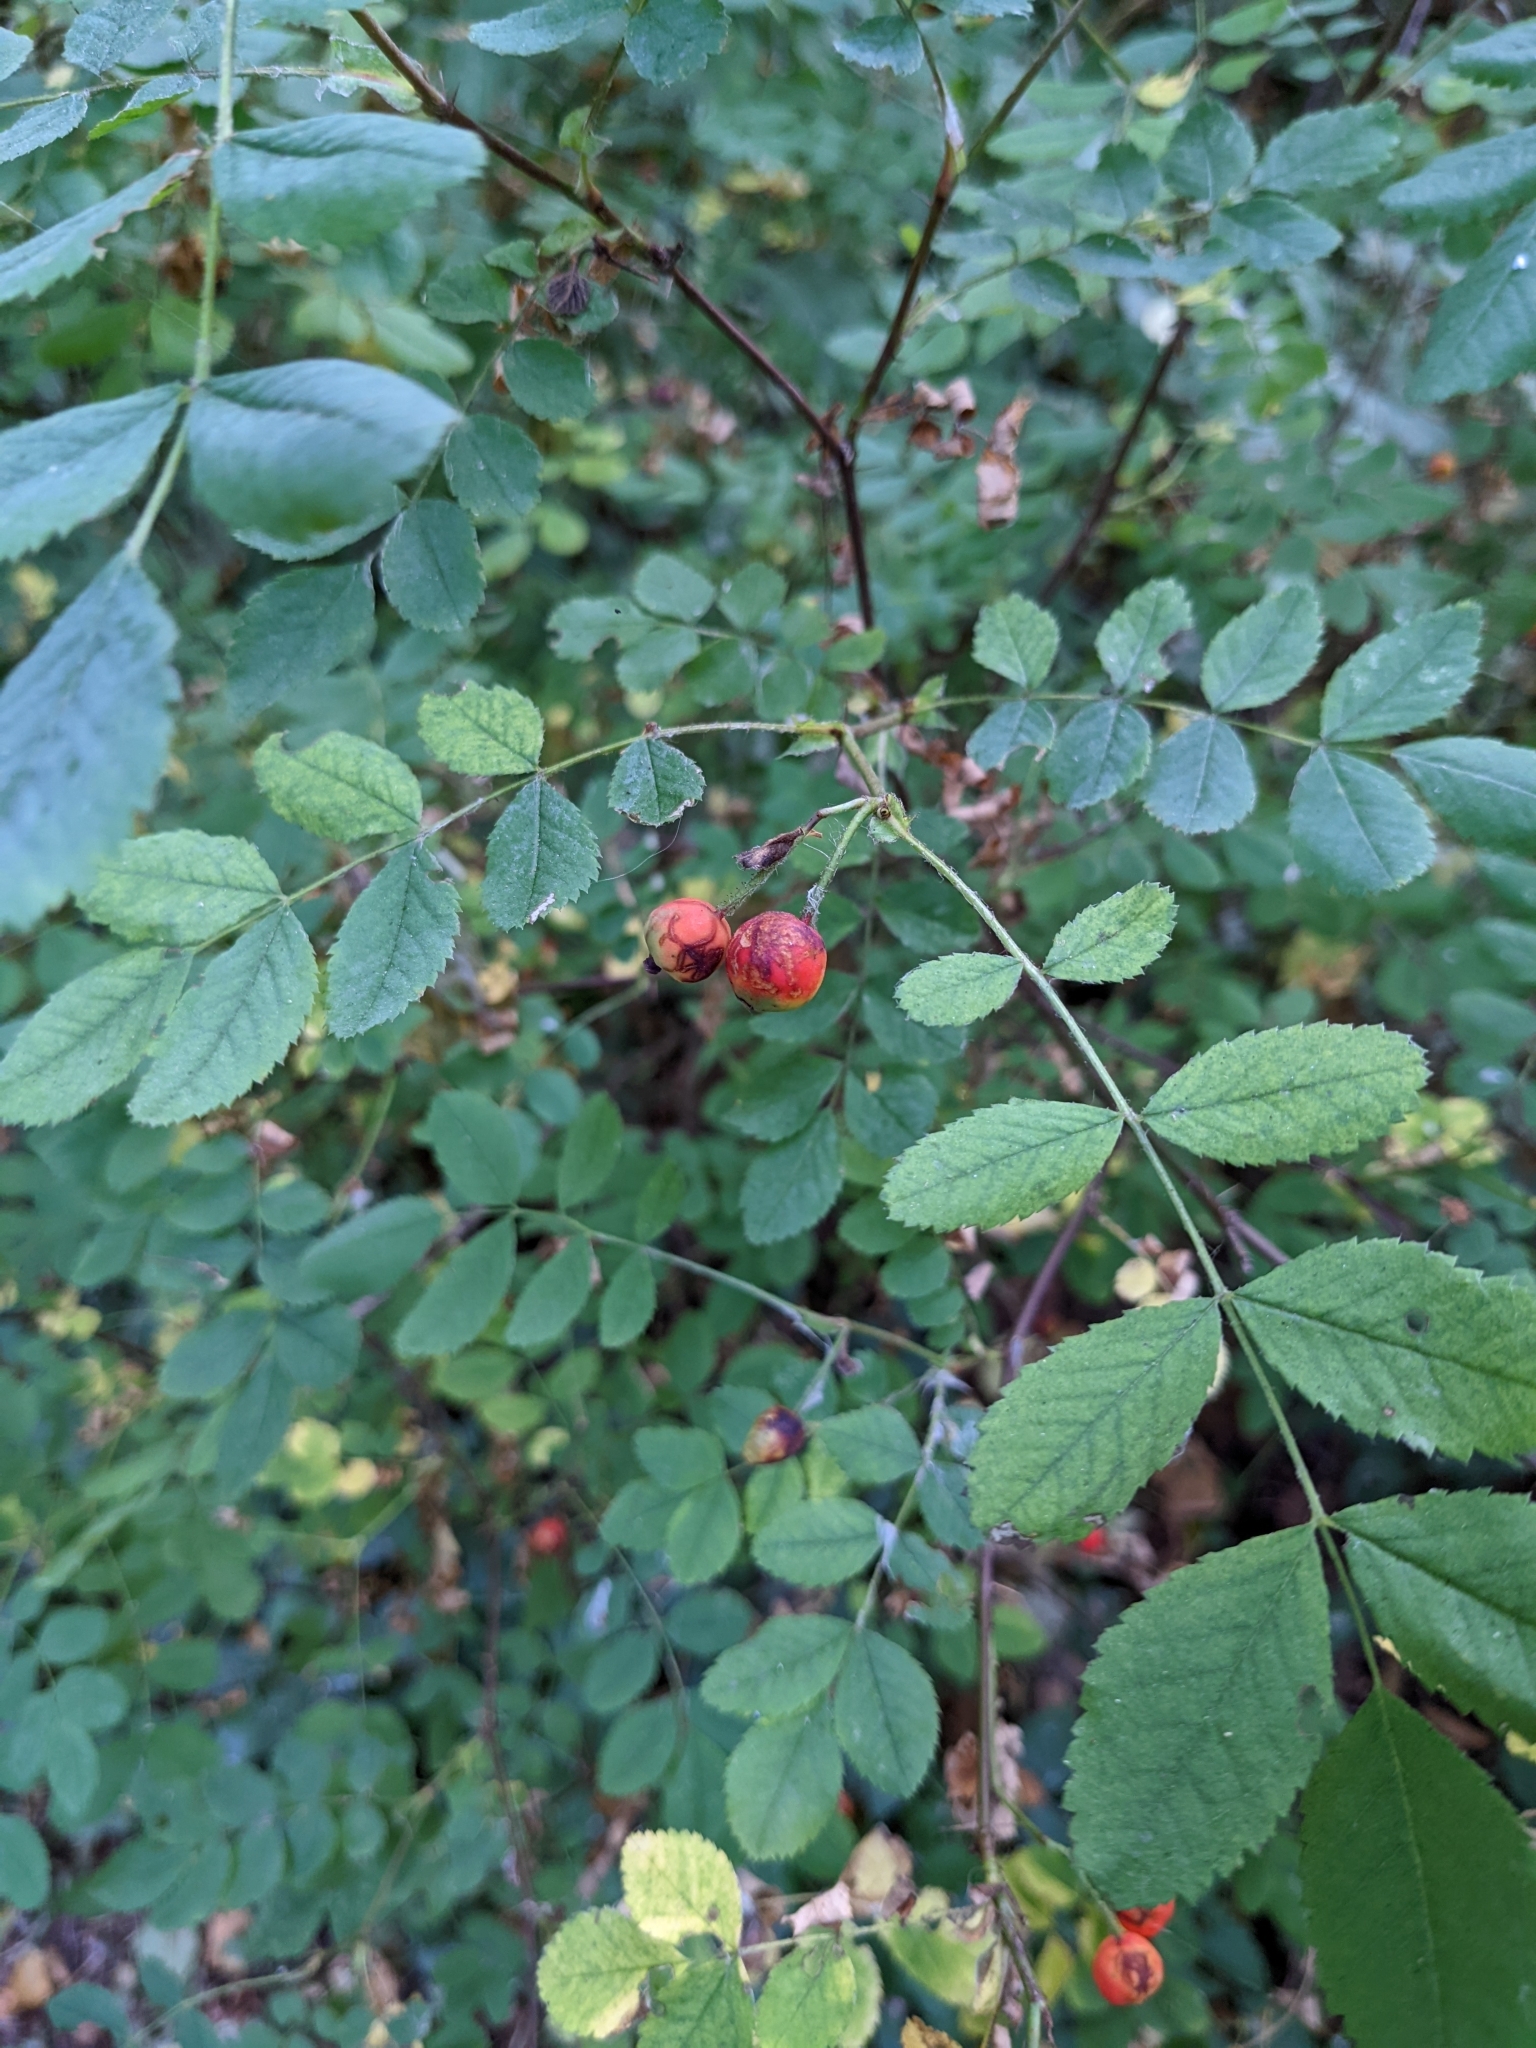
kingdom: Plantae
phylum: Tracheophyta
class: Magnoliopsida
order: Rosales
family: Rosaceae
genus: Rosa
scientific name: Rosa gymnocarpa
